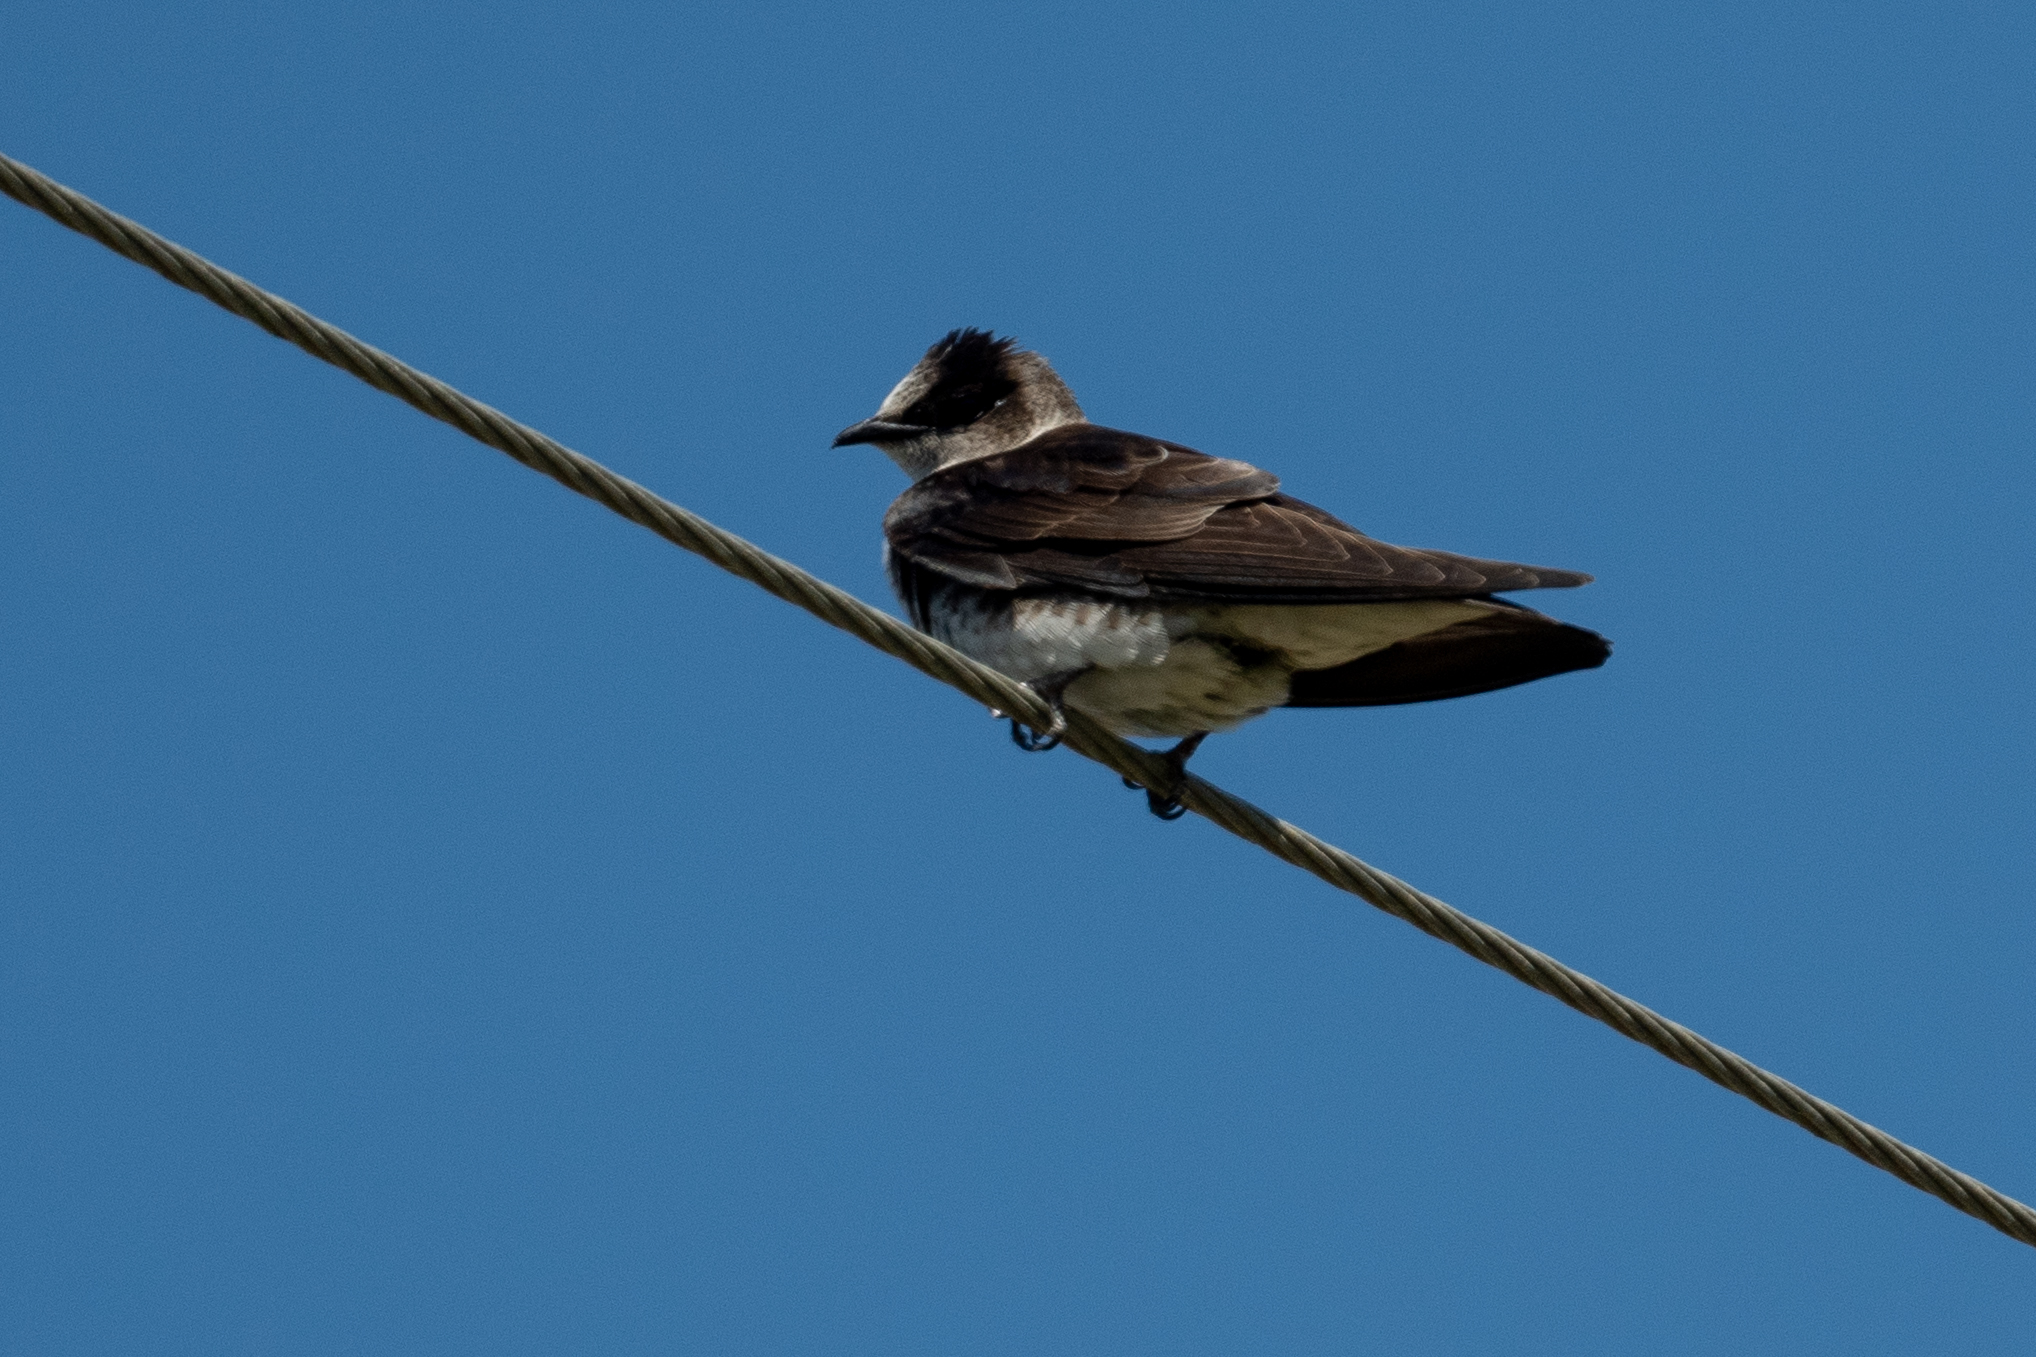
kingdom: Animalia
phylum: Chordata
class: Aves
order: Passeriformes
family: Hirundinidae
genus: Progne
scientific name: Progne subis
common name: Purple martin
